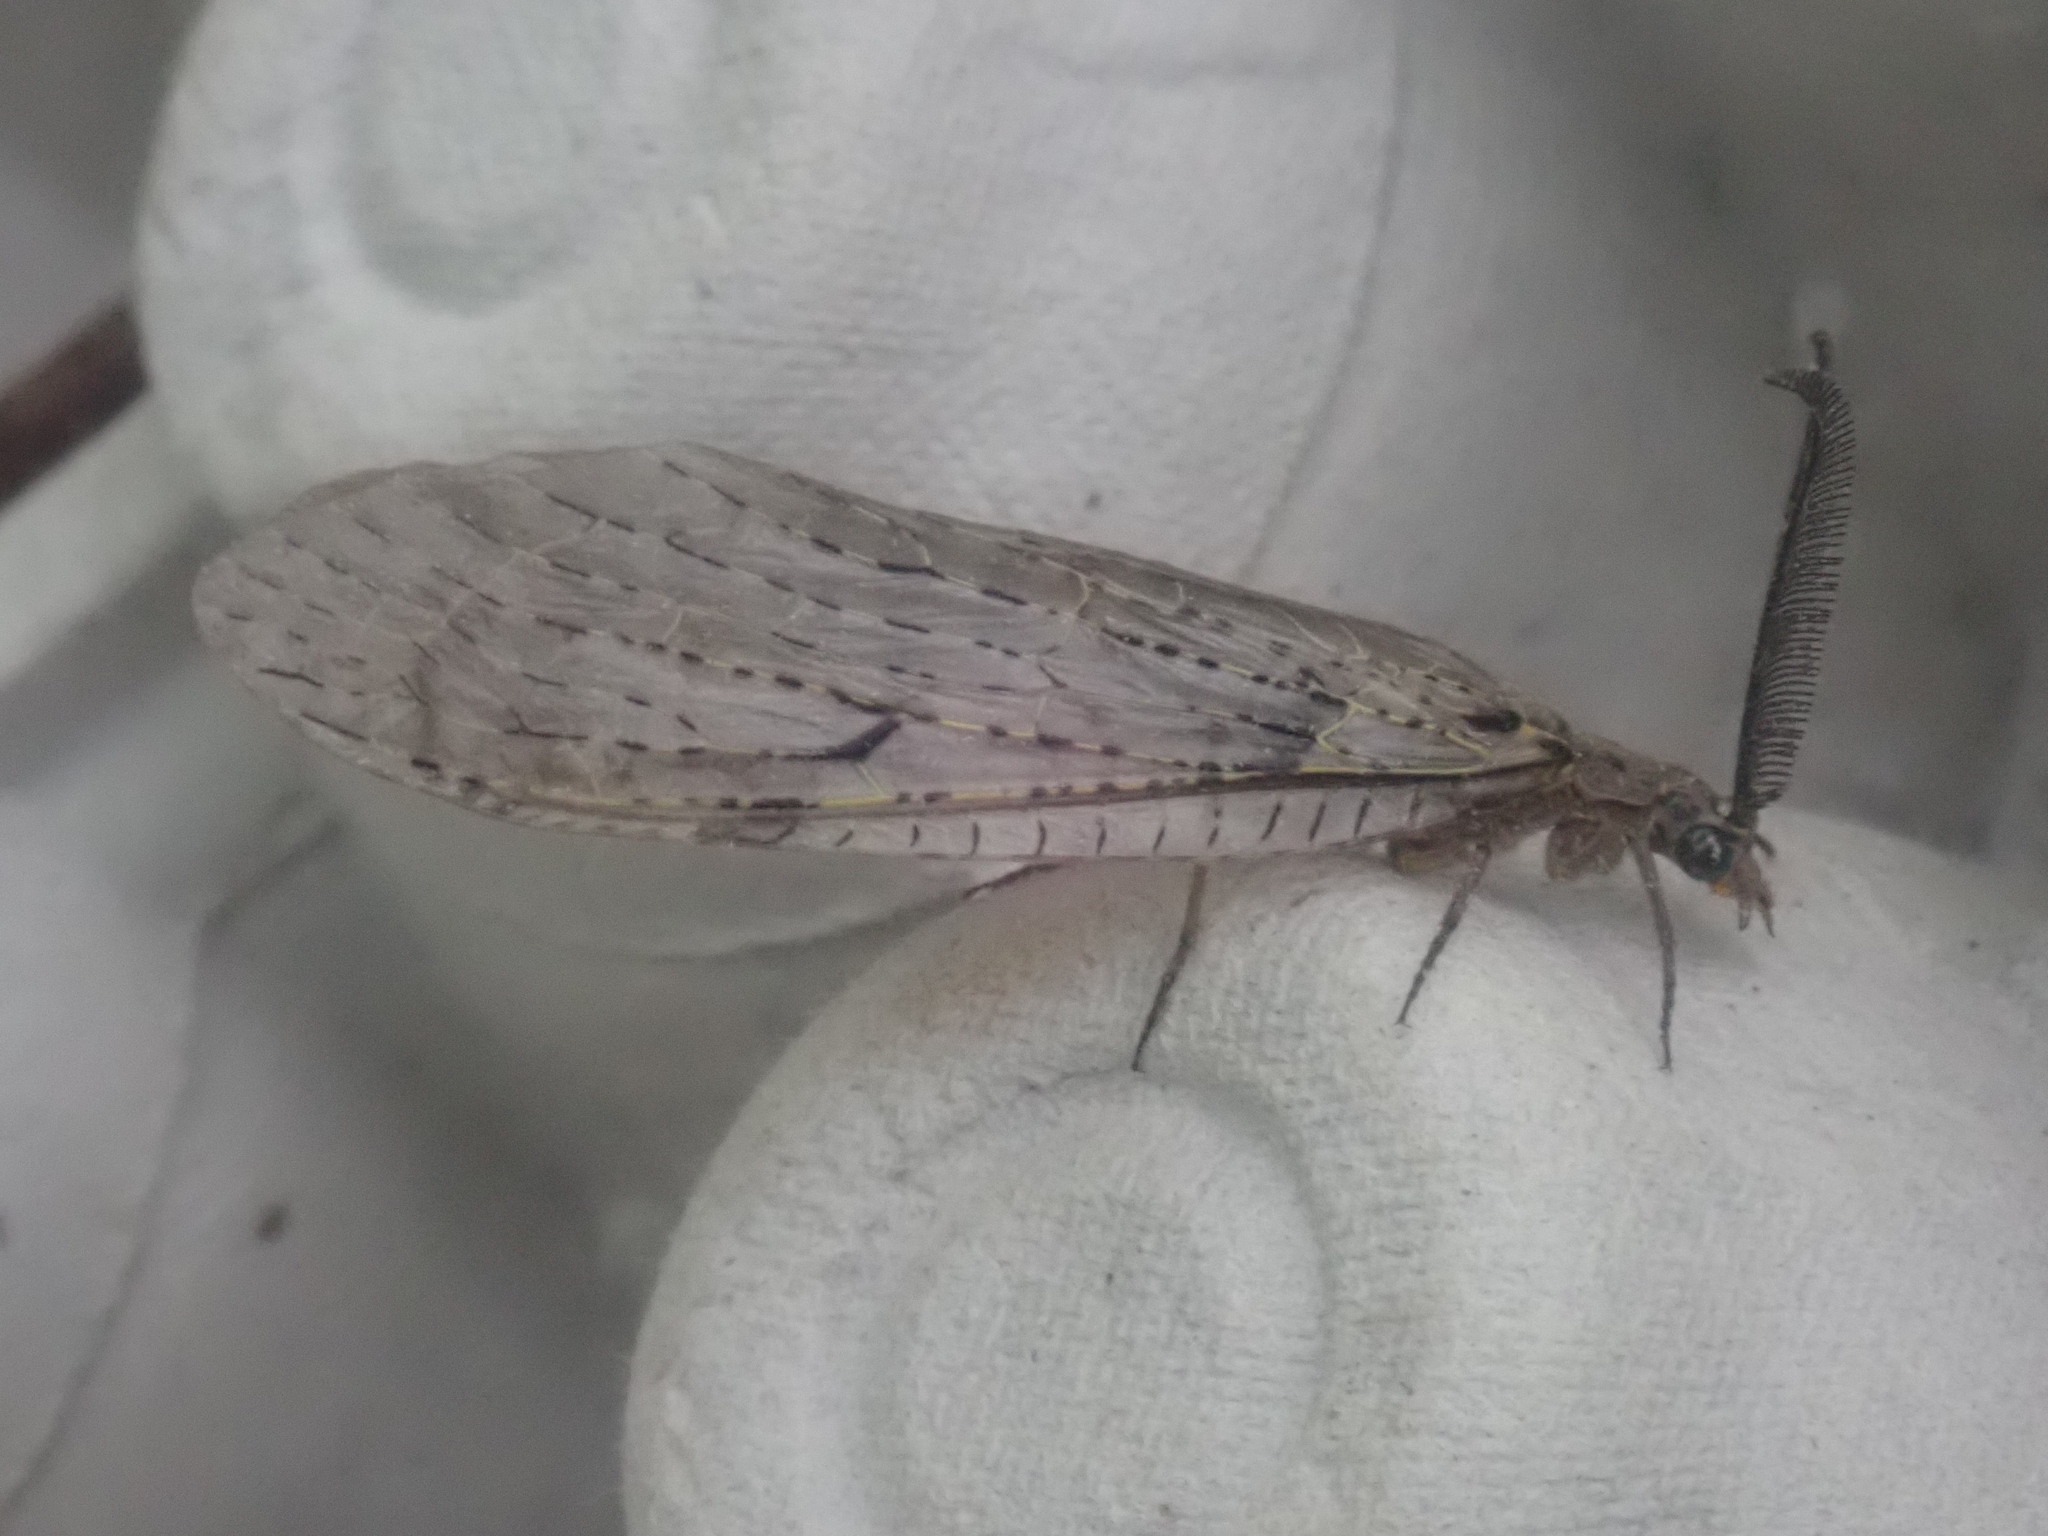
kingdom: Animalia
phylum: Arthropoda
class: Insecta
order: Megaloptera
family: Corydalidae
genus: Chauliodes
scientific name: Chauliodes rastricornis
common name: Spring fishfly
